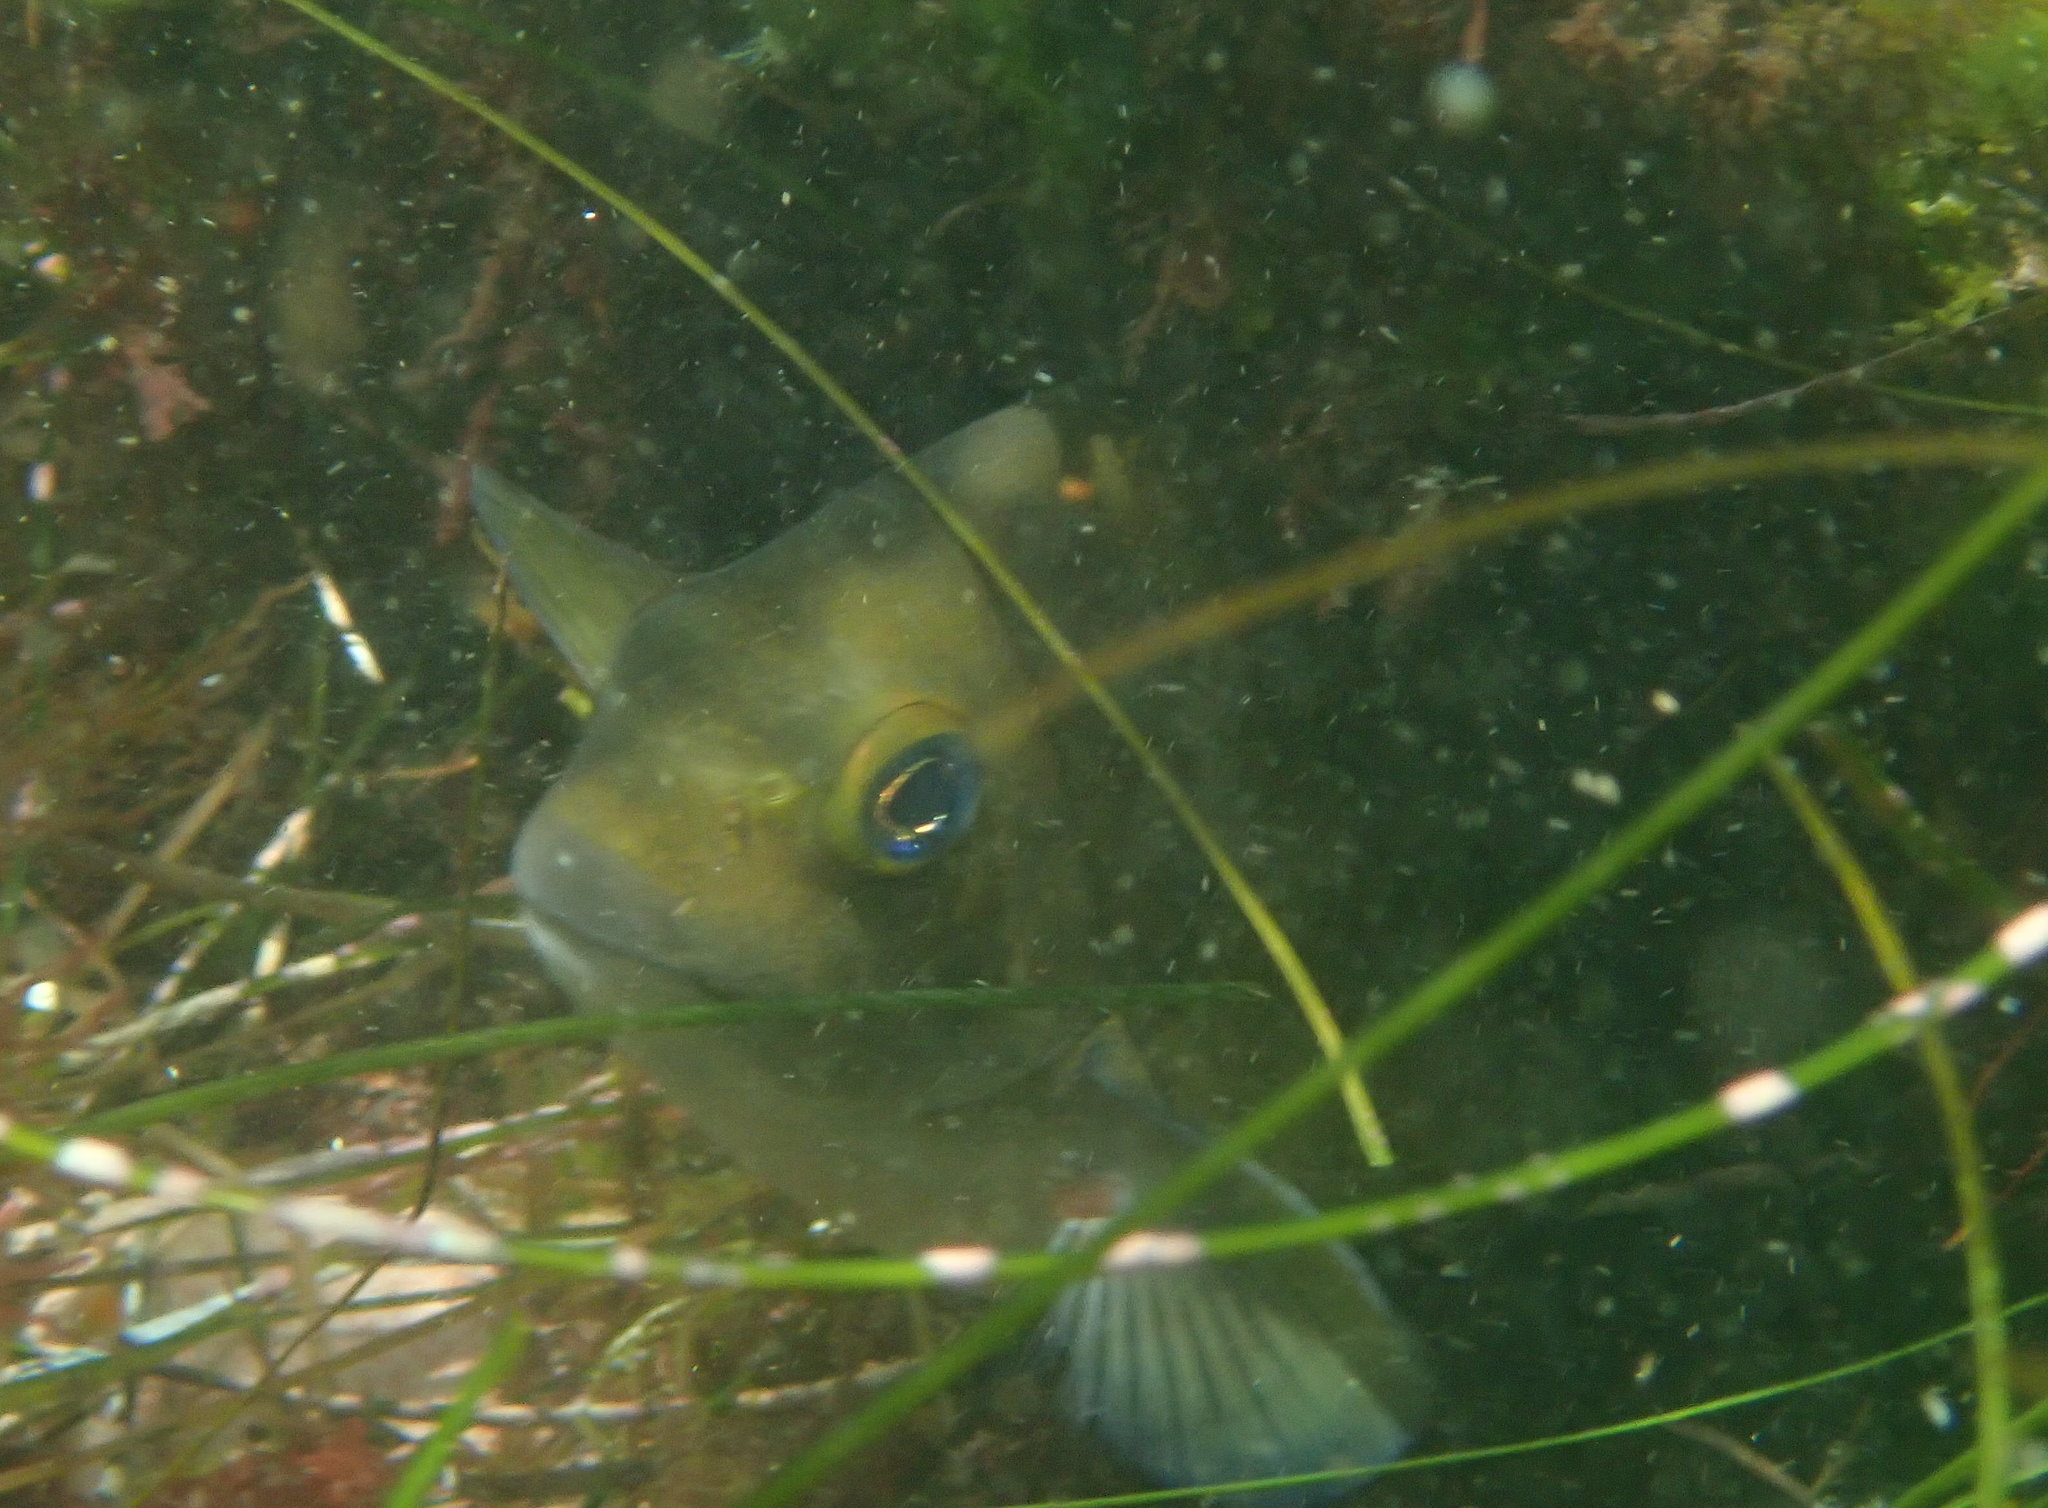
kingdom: Animalia
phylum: Chordata
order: Perciformes
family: Kyphosidae
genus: Girella
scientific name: Girella nigricans
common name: Opaleye
